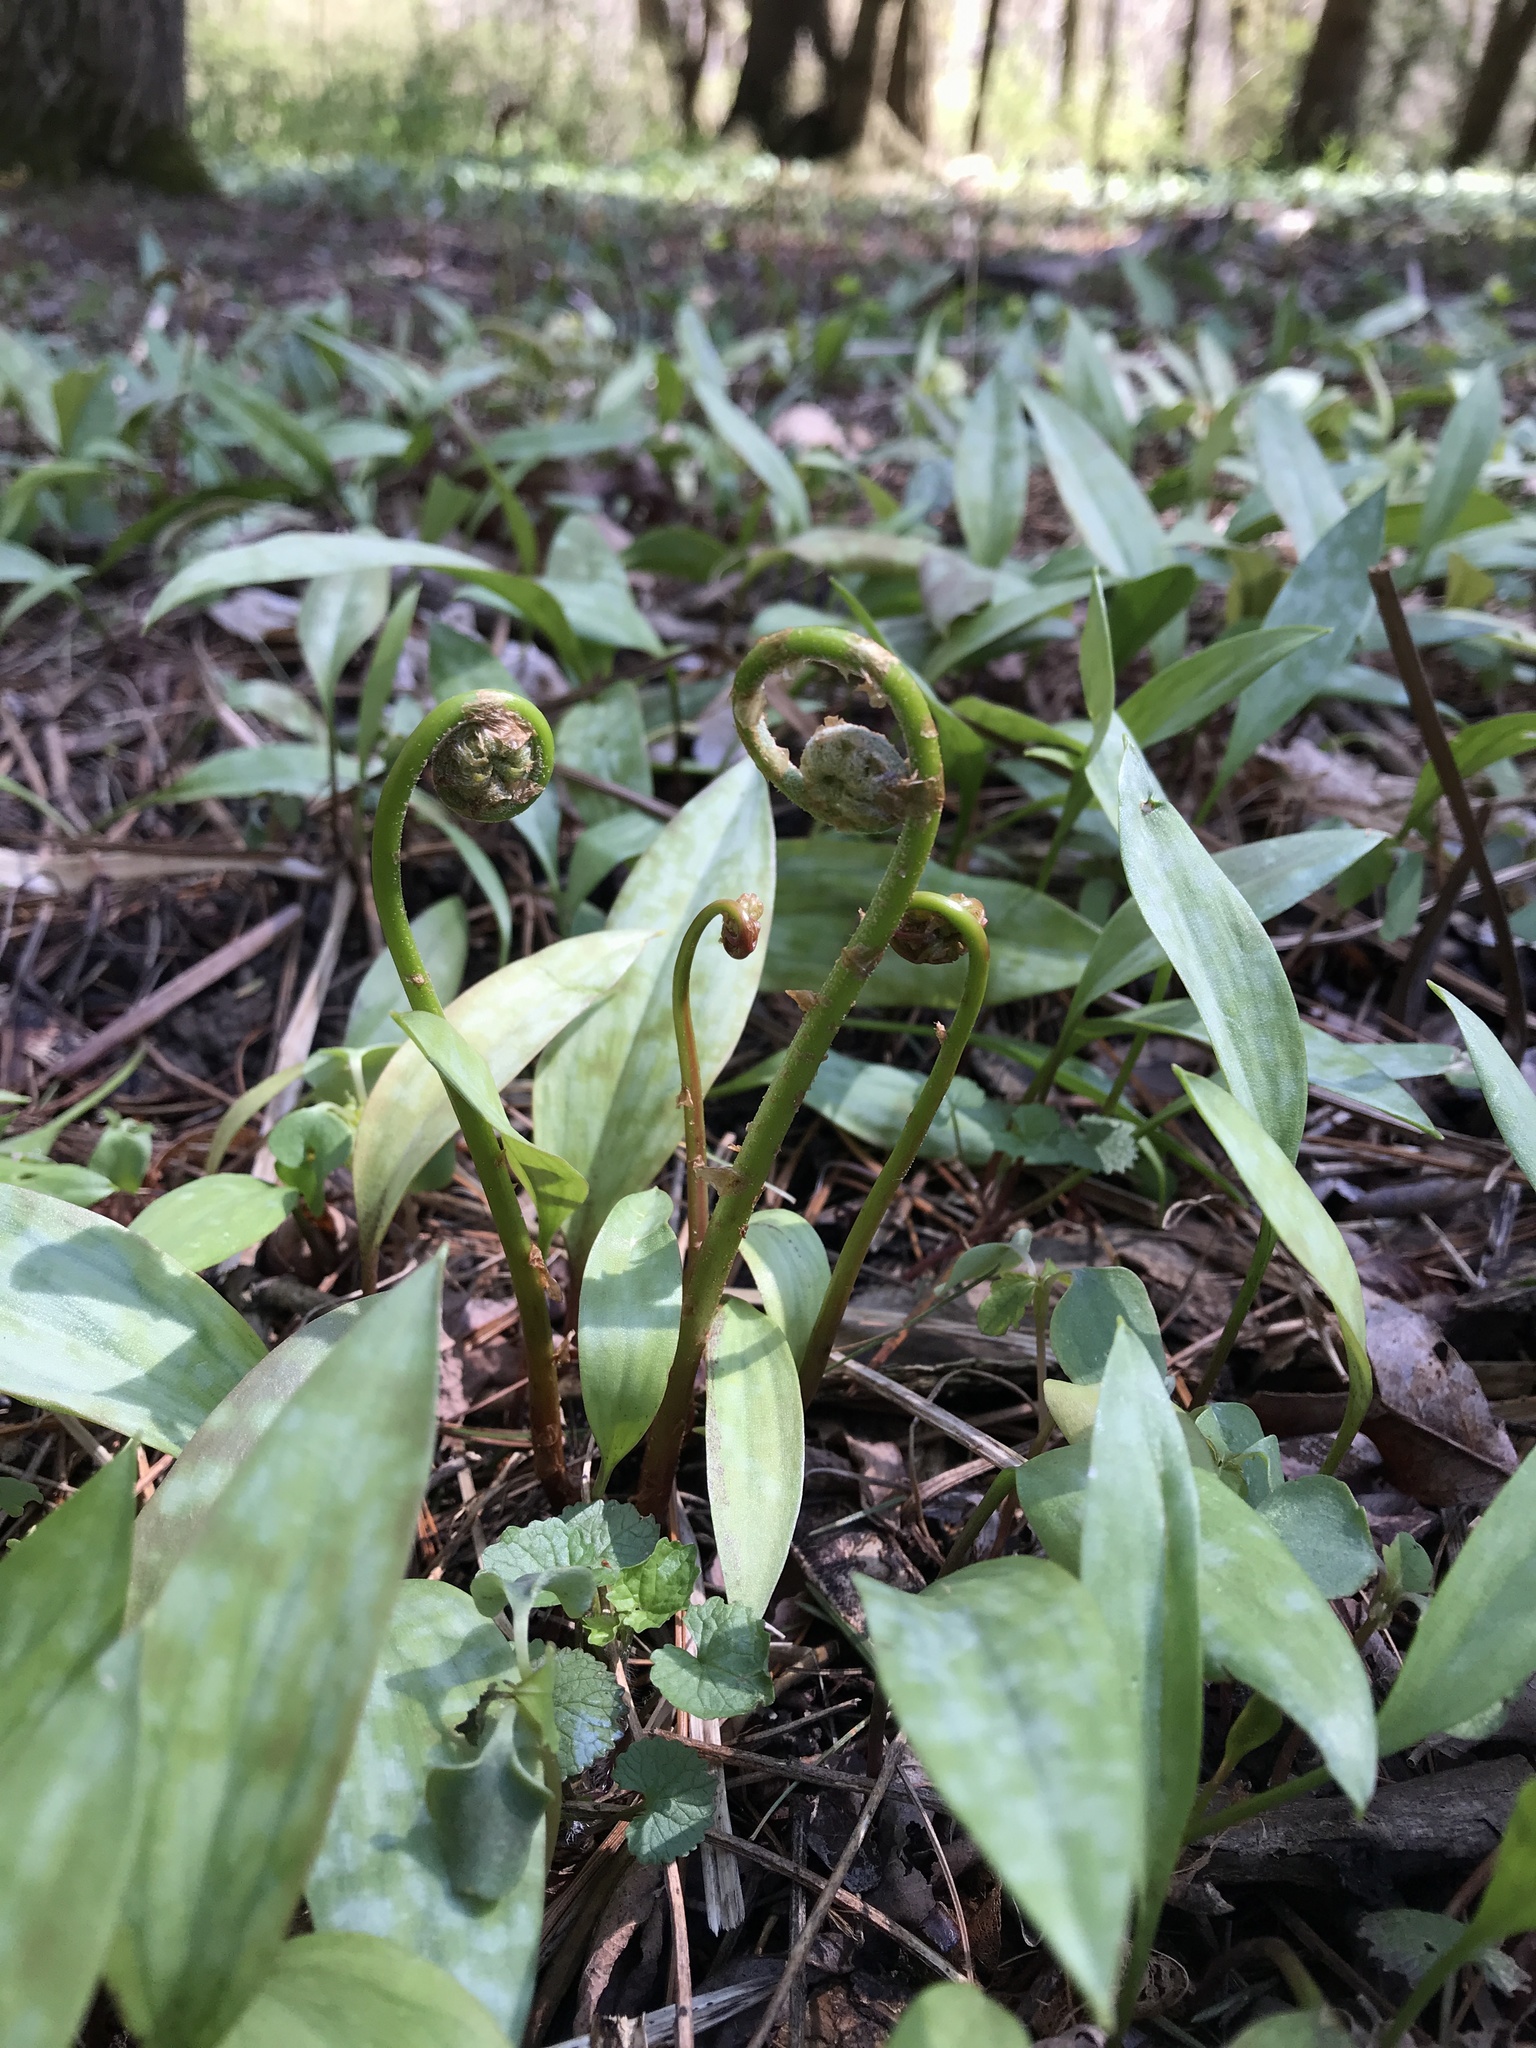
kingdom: Plantae
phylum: Tracheophyta
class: Polypodiopsida
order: Polypodiales
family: Onocleaceae
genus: Onoclea
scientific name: Onoclea sensibilis
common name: Sensitive fern
